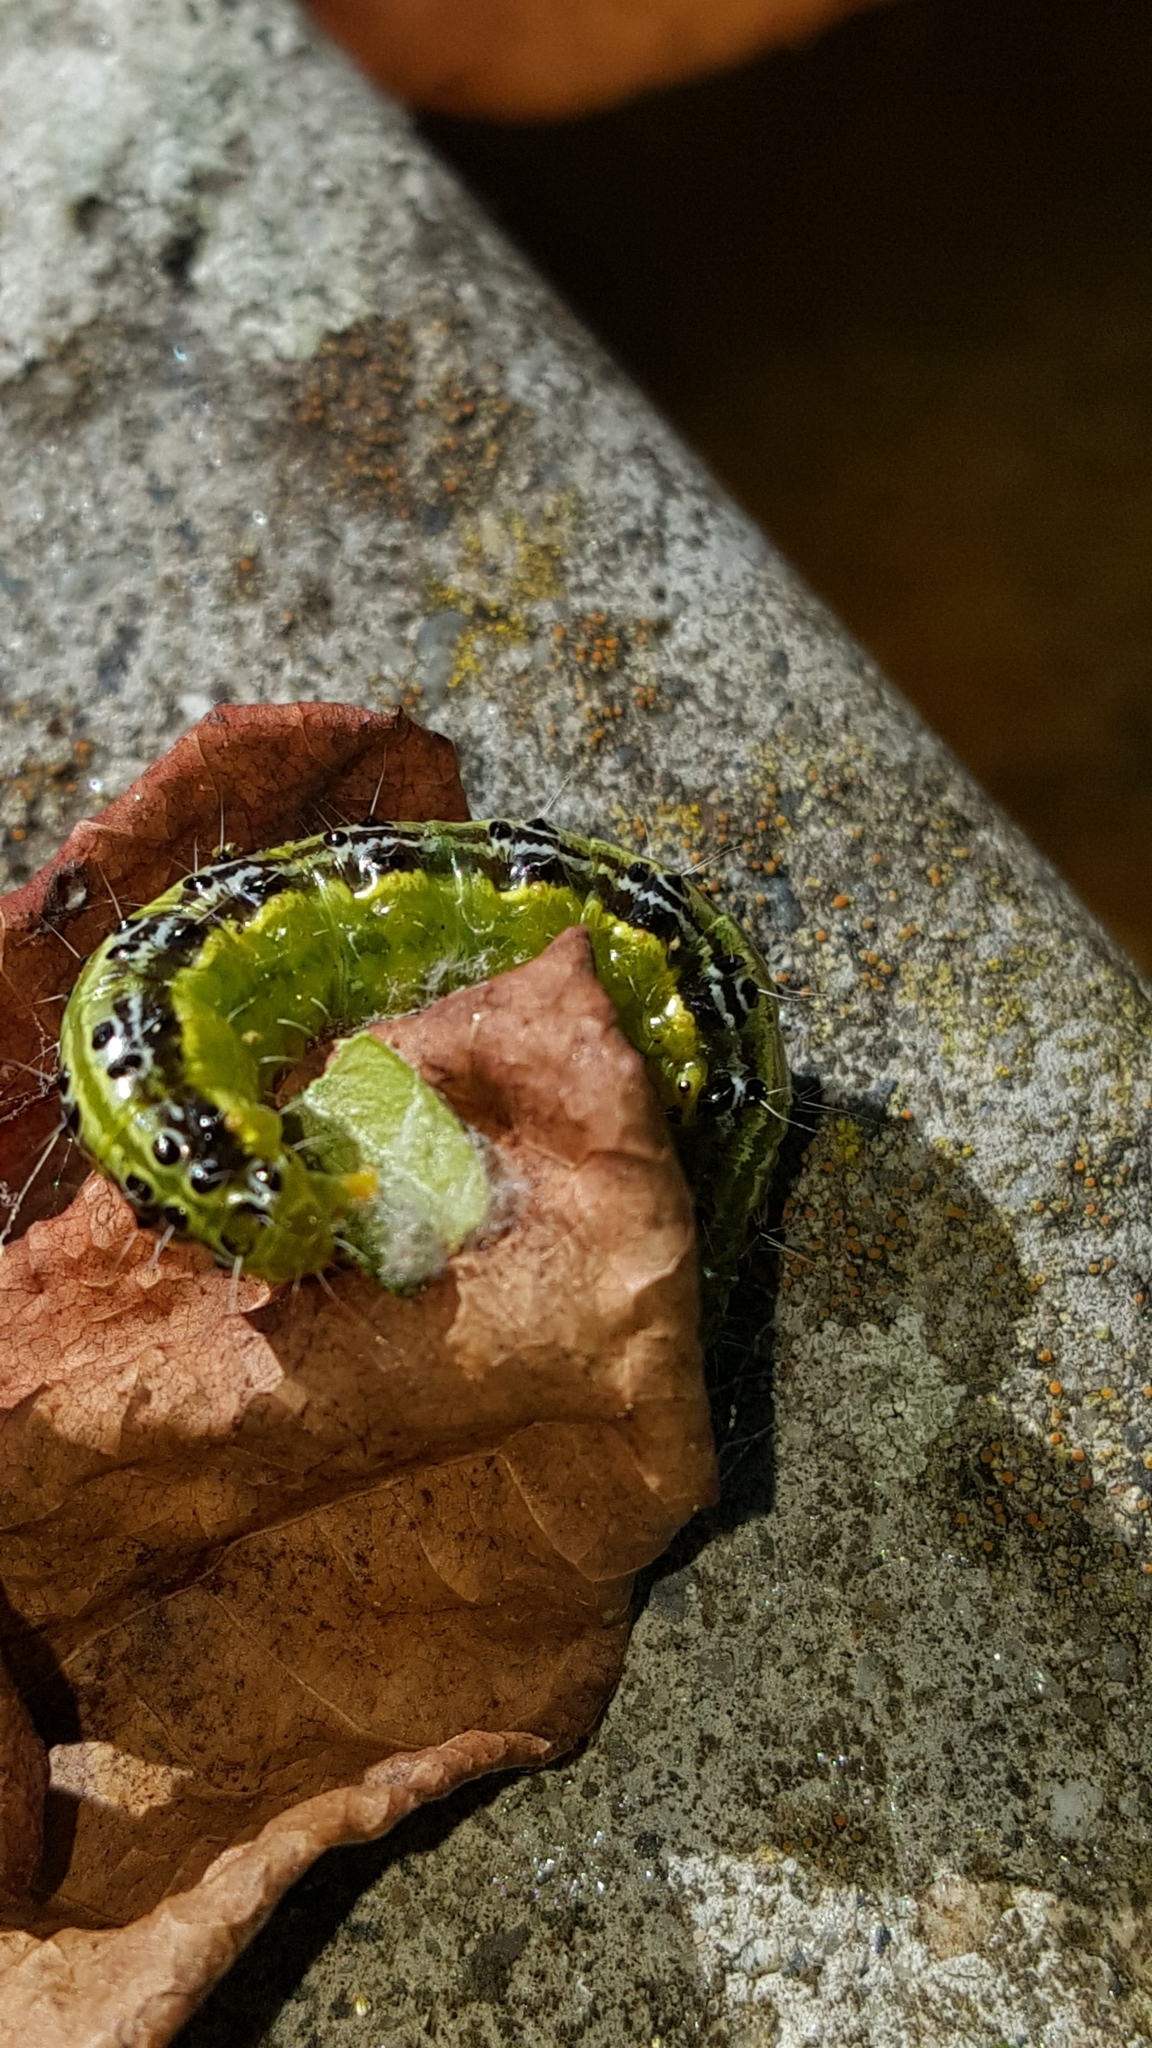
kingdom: Animalia
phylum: Arthropoda
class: Insecta
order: Lepidoptera
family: Crambidae
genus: Cydalima
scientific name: Cydalima perspectalis
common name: Box tree moth
